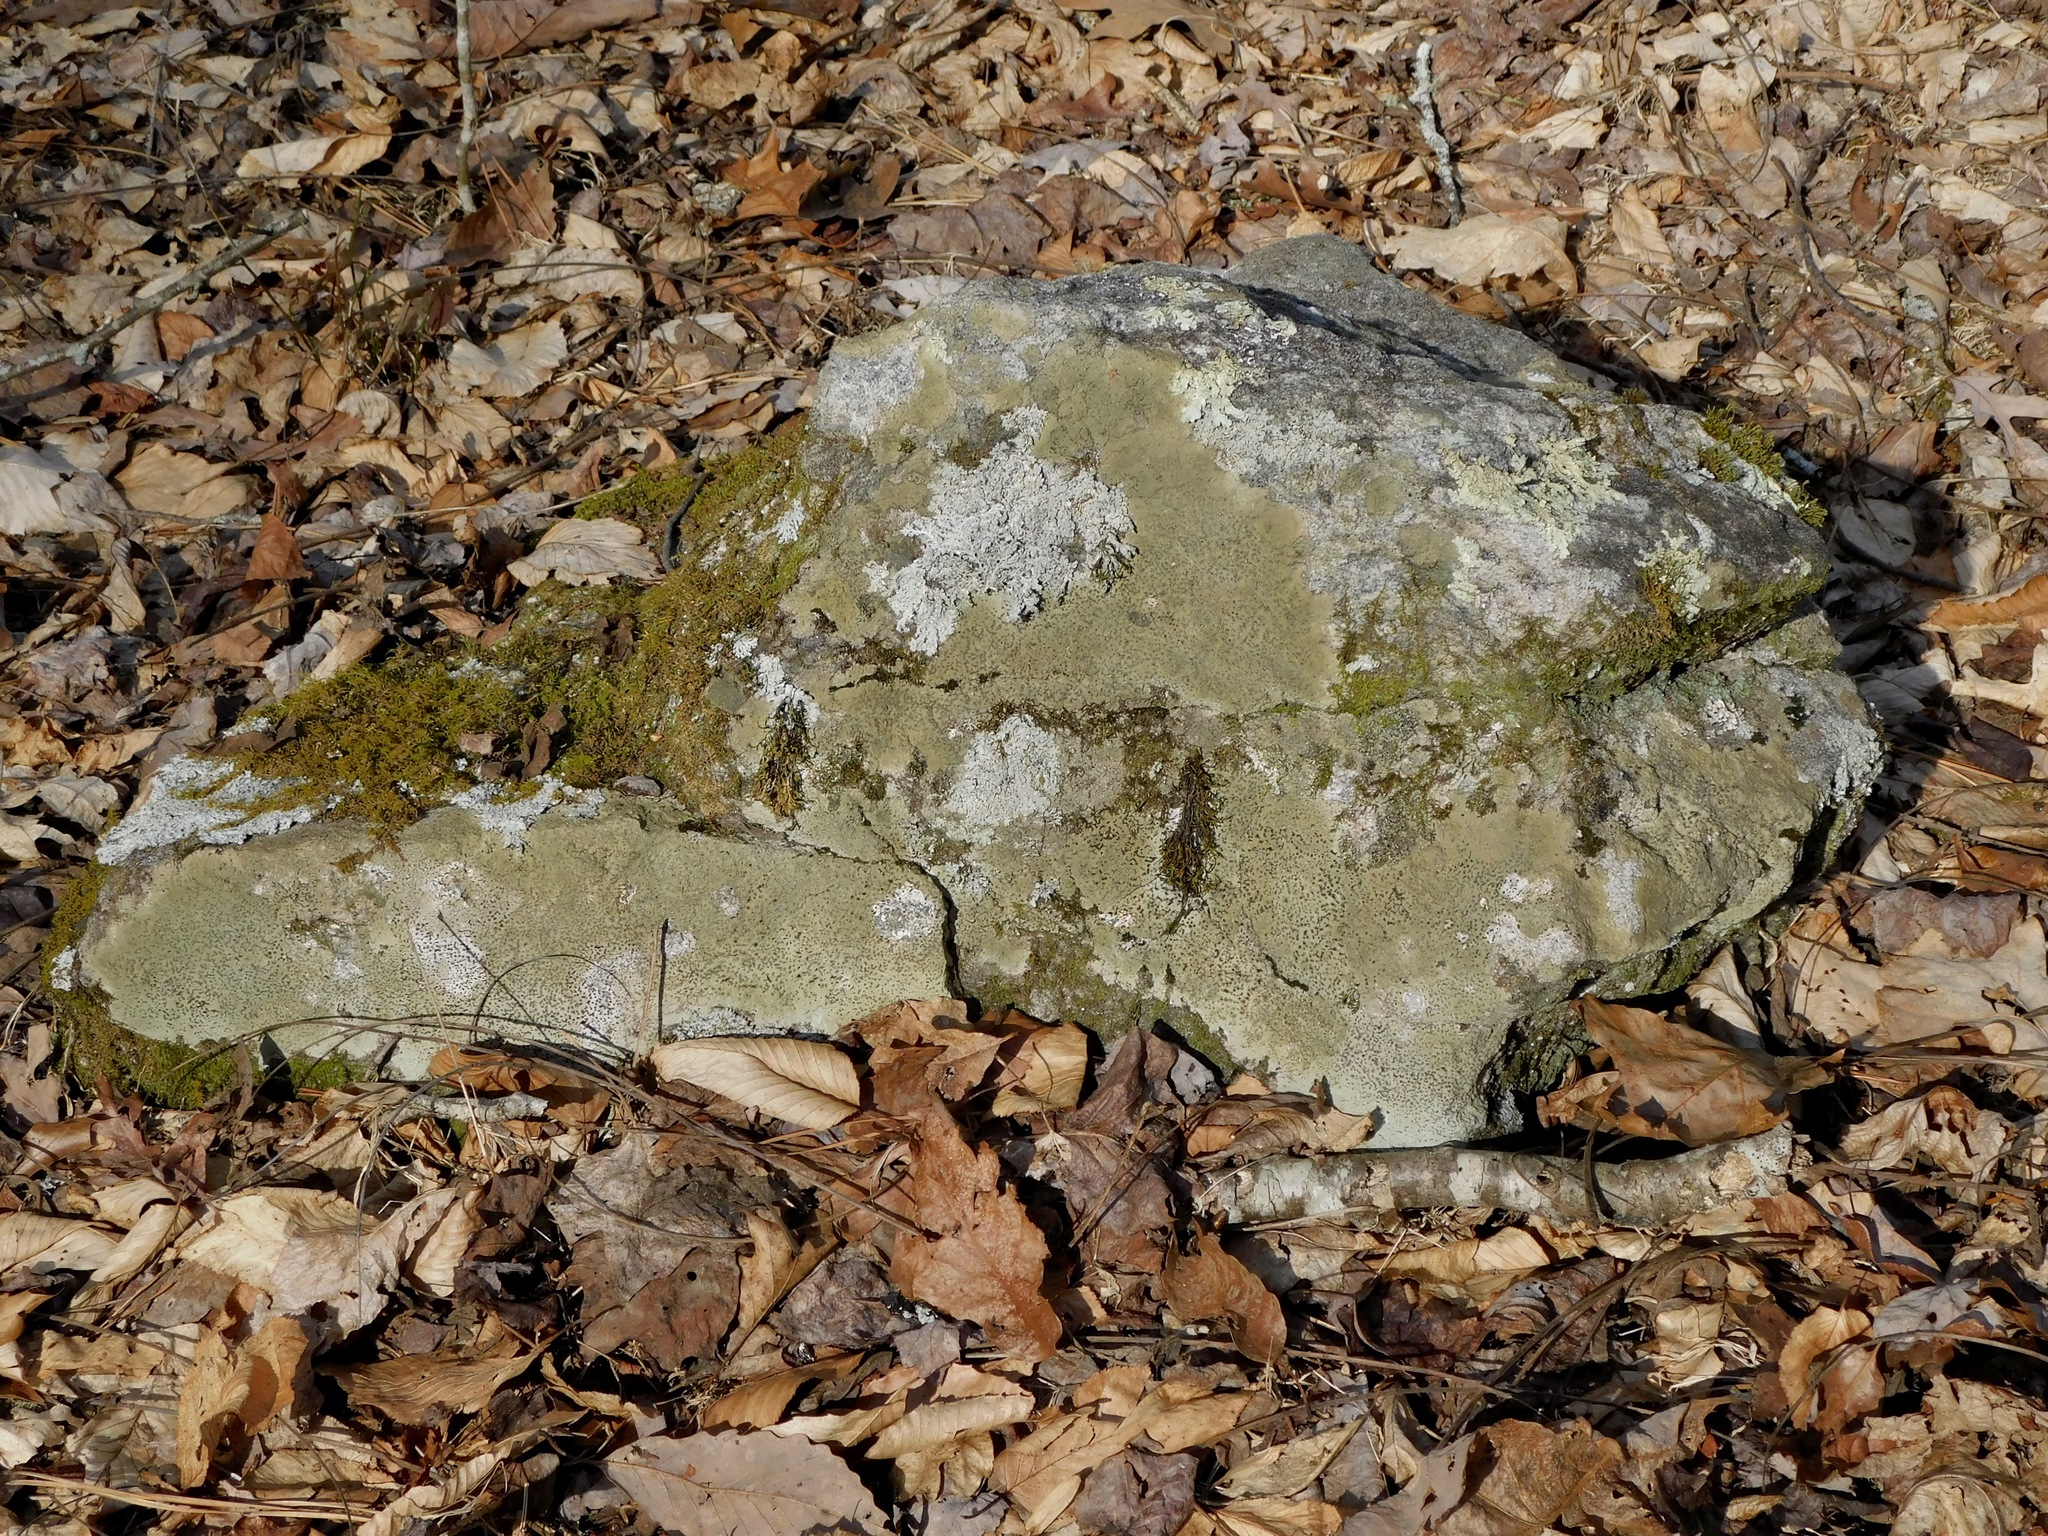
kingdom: Fungi
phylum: Ascomycota
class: Lecanoromycetes
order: Caliciales
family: Physciaceae
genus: Heterodermia
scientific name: Heterodermia speciosa
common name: Powdered fringe lichen
